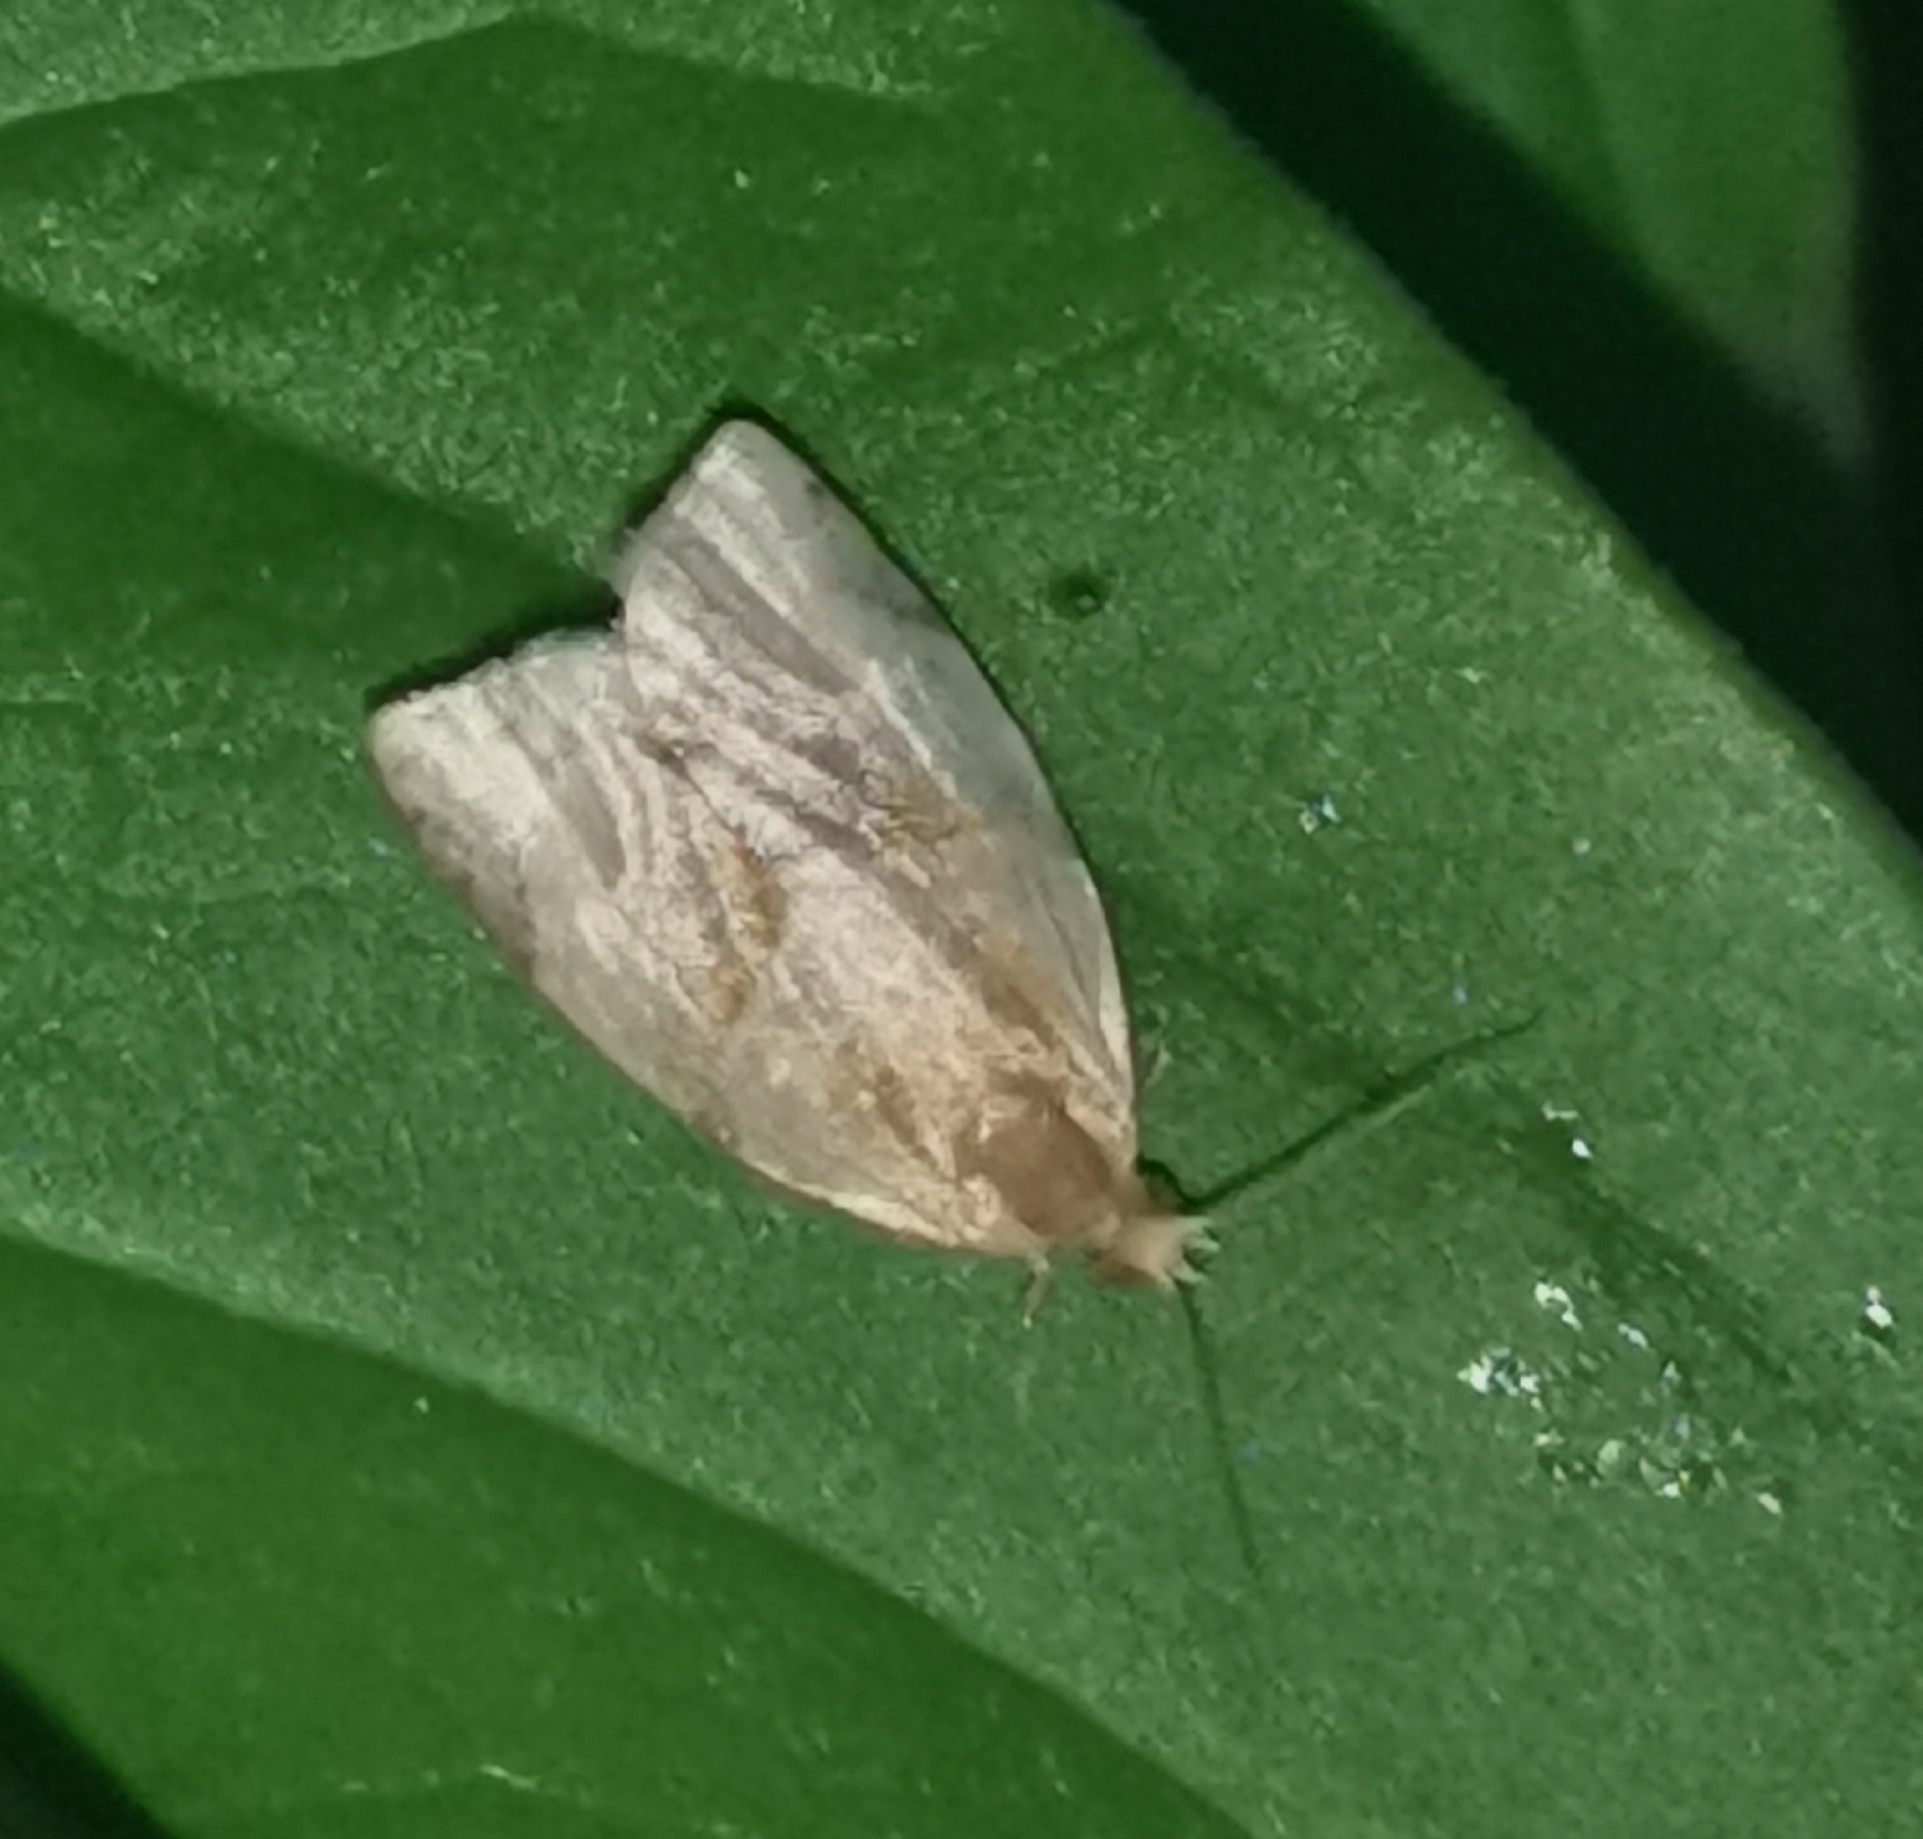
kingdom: Animalia
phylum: Arthropoda
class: Insecta
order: Lepidoptera
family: Tortricidae
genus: Clepsis
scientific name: Clepsis rurinana
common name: Pale twist
